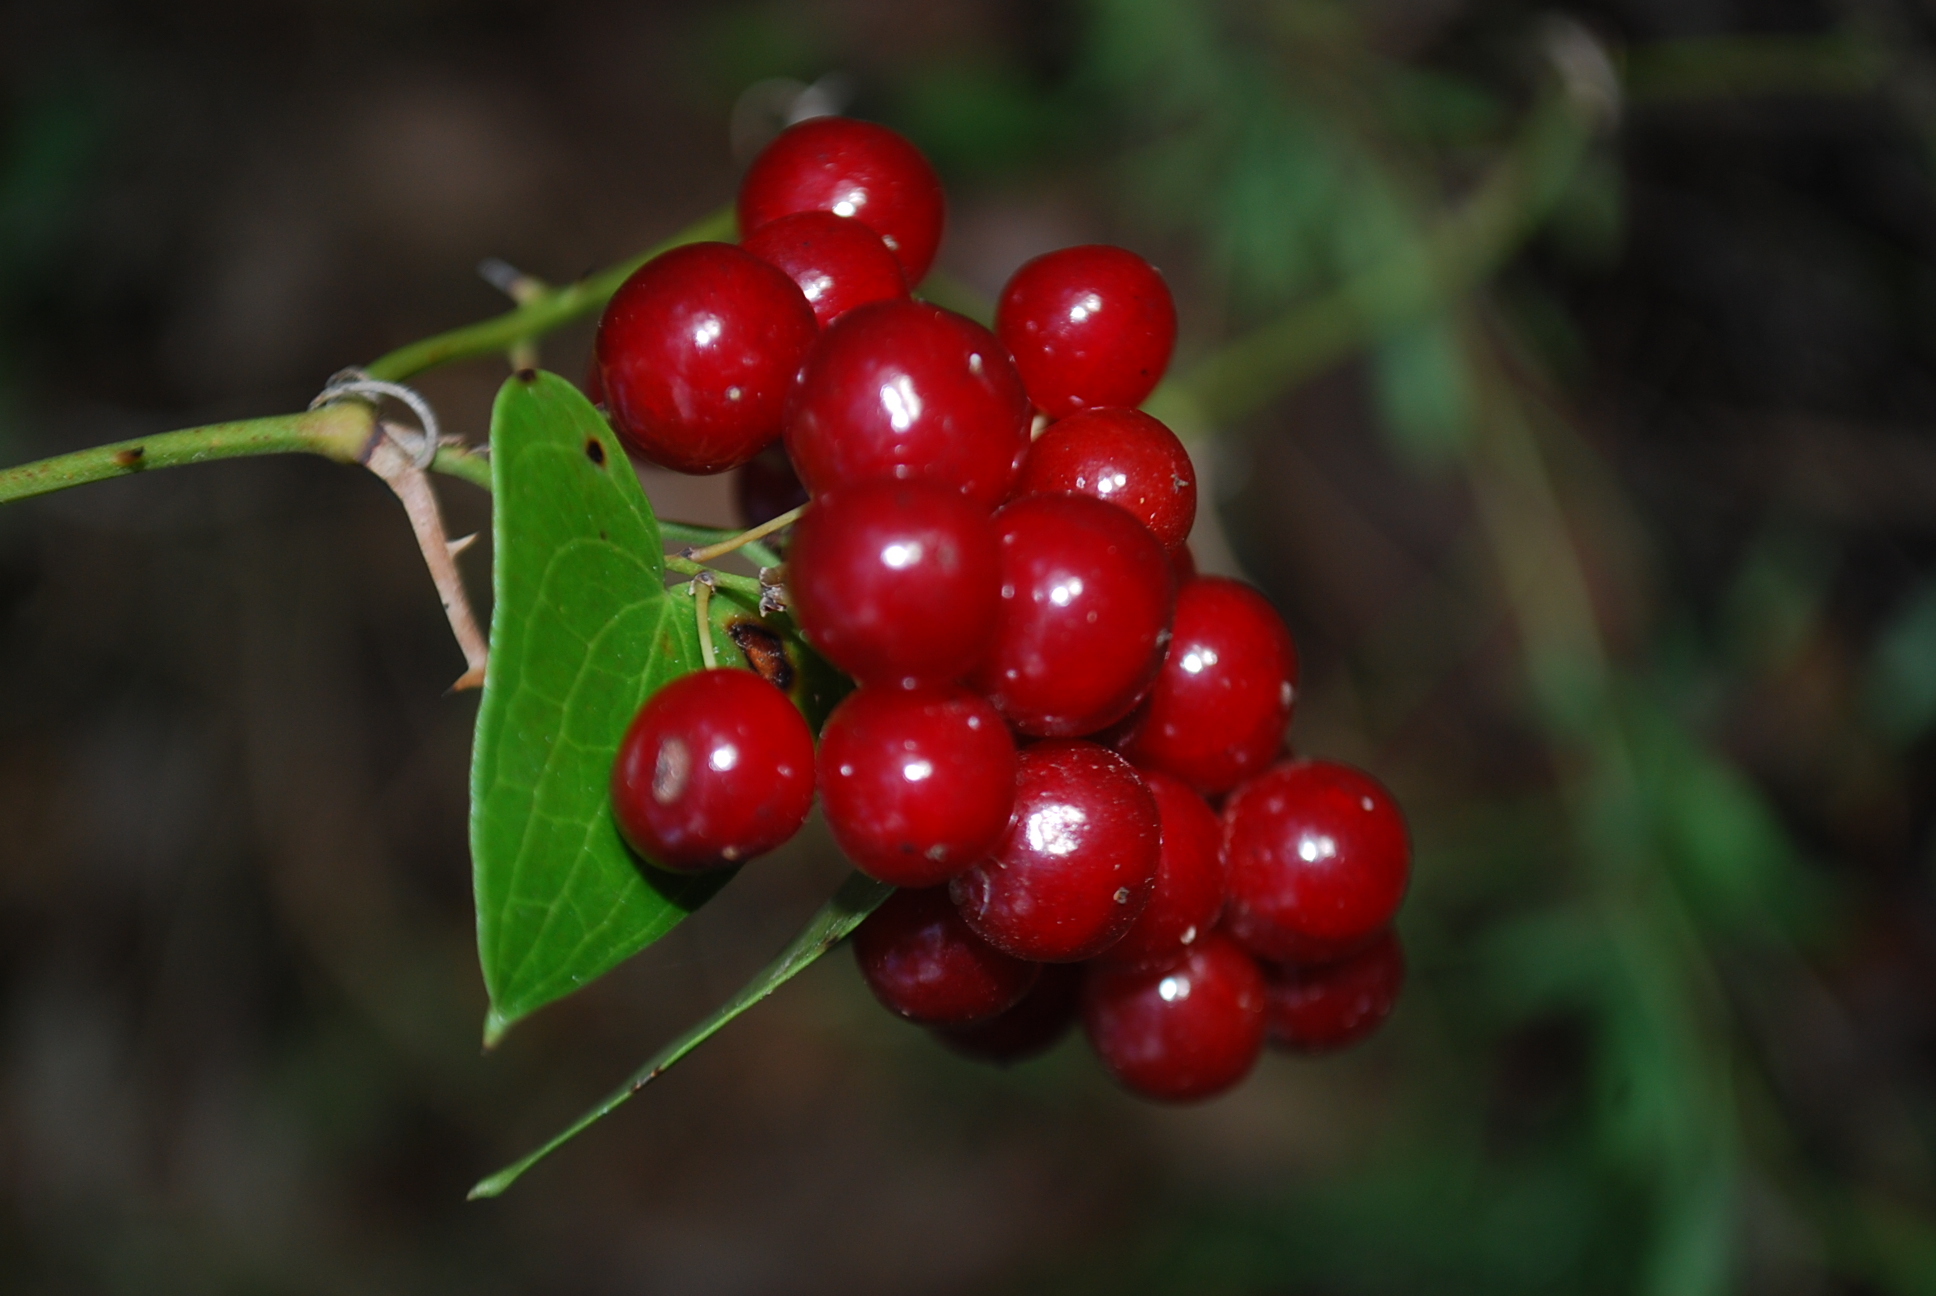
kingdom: Plantae
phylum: Tracheophyta
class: Liliopsida
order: Liliales
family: Smilacaceae
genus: Smilax
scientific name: Smilax aspera
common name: Common smilax
